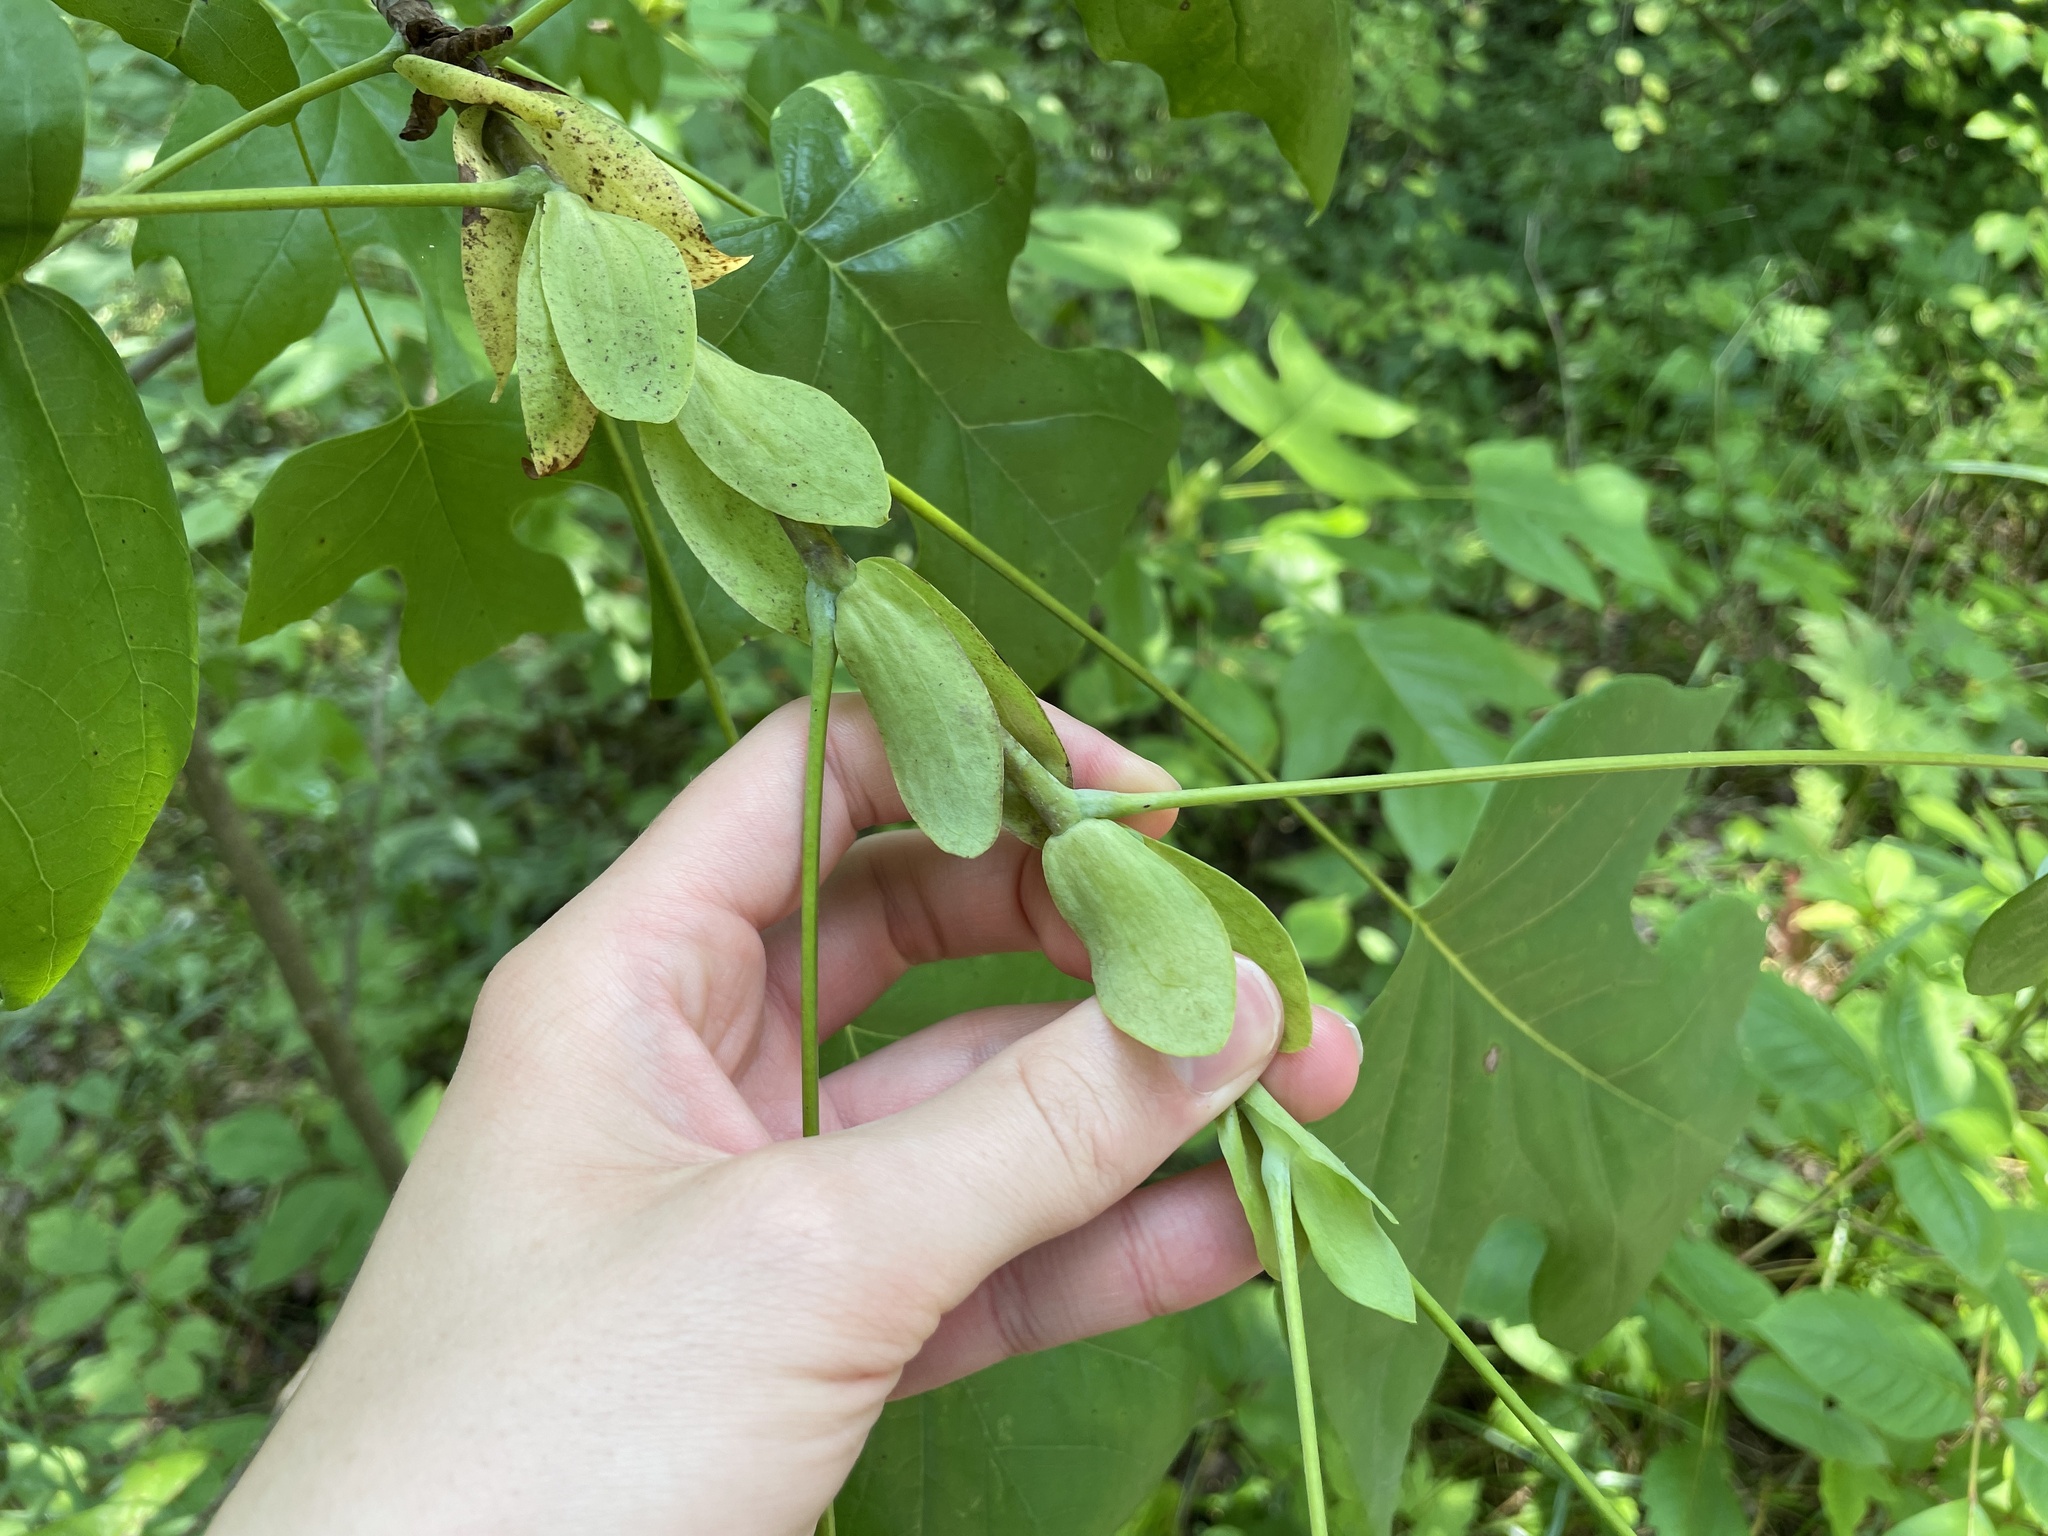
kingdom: Plantae
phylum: Tracheophyta
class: Magnoliopsida
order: Magnoliales
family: Magnoliaceae
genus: Liriodendron
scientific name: Liriodendron tulipifera
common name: Tulip tree
